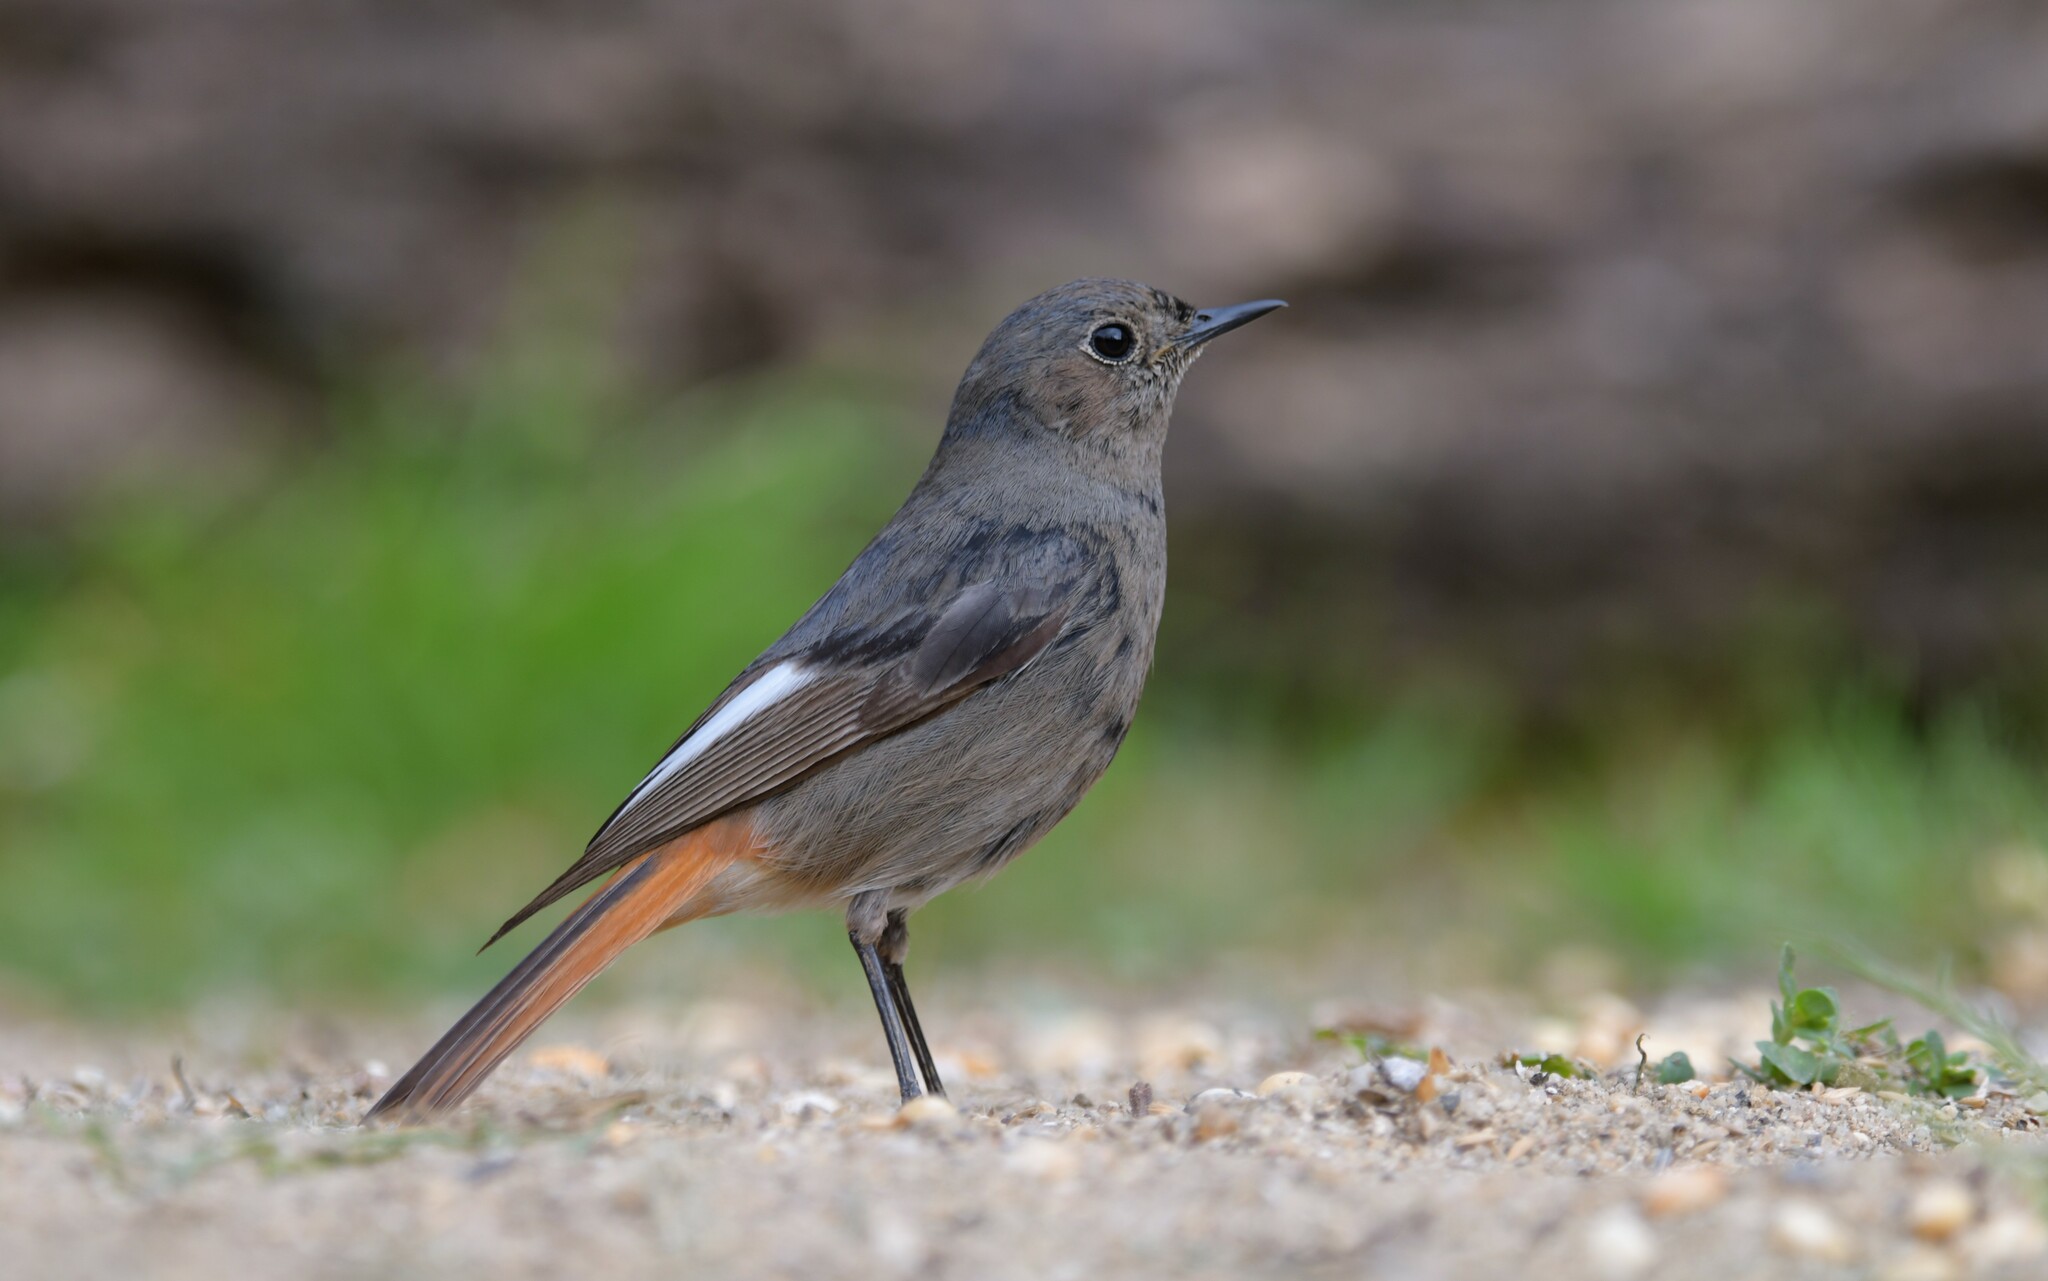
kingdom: Animalia
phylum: Chordata
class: Aves
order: Passeriformes
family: Muscicapidae
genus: Phoenicurus
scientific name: Phoenicurus ochruros
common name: Black redstart
